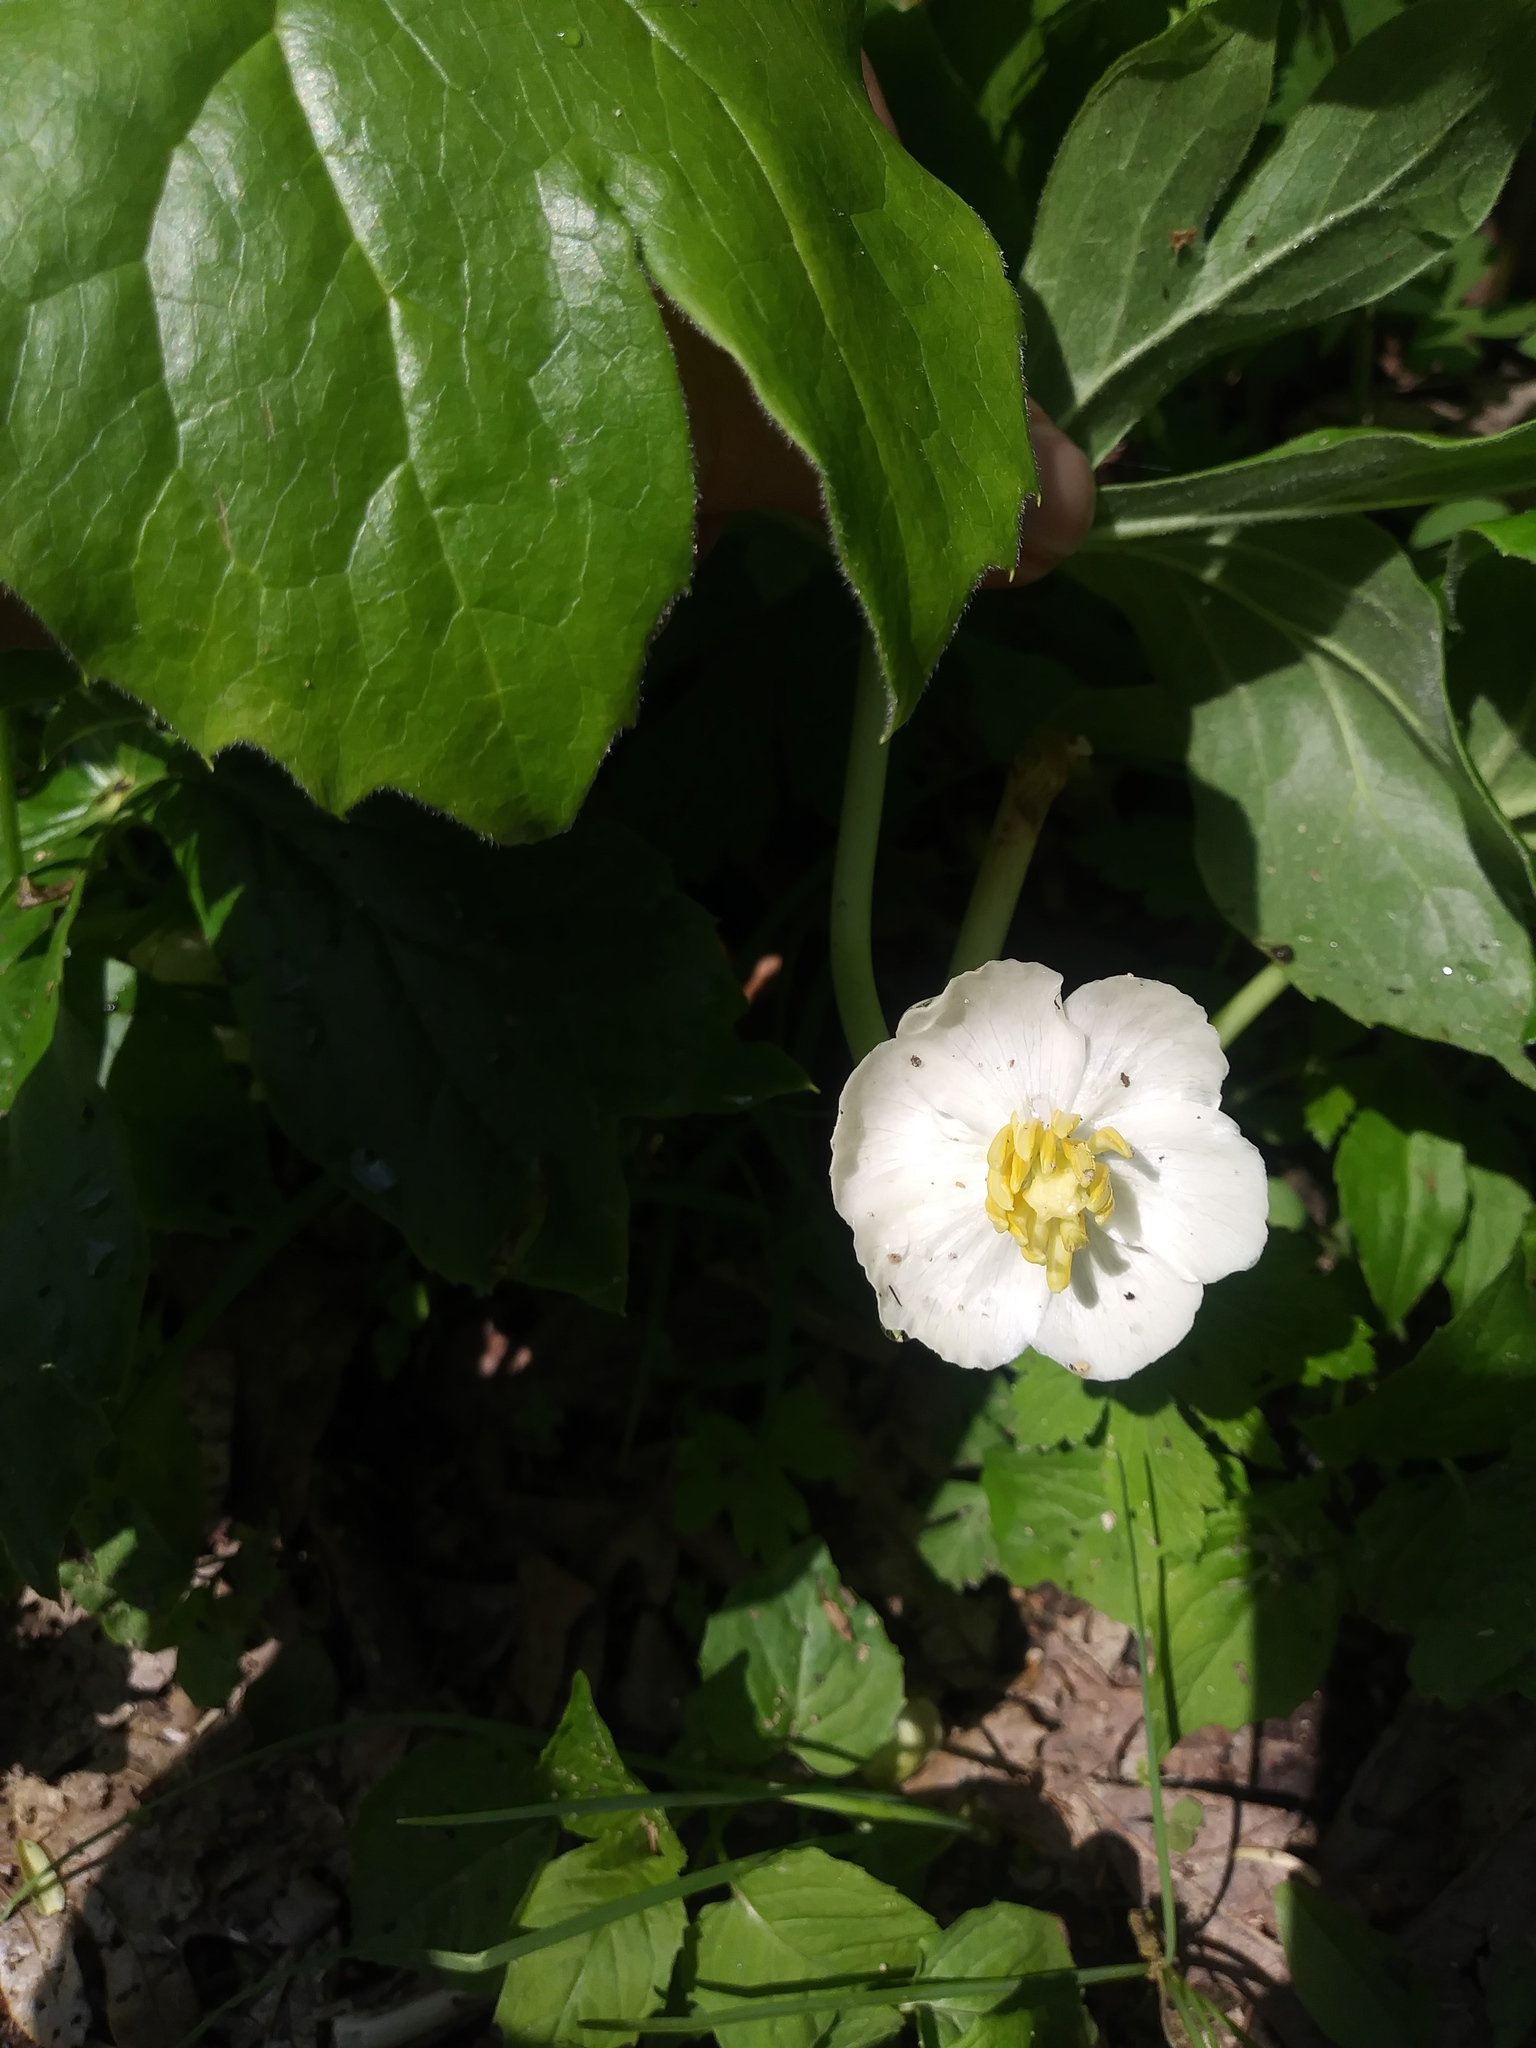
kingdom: Plantae
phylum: Tracheophyta
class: Magnoliopsida
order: Ranunculales
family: Berberidaceae
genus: Podophyllum
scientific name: Podophyllum peltatum
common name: Wild mandrake
